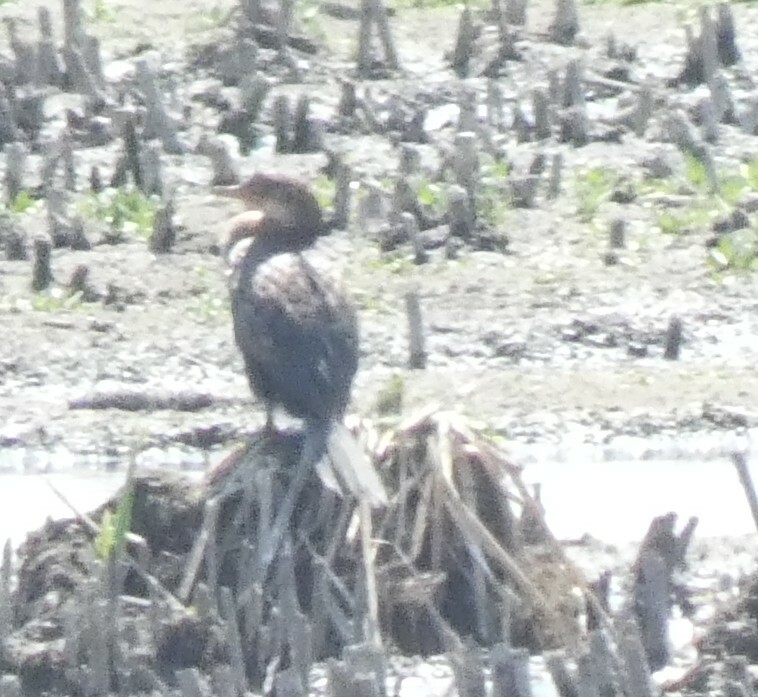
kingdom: Animalia
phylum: Chordata
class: Aves
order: Suliformes
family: Phalacrocoracidae
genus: Microcarbo
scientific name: Microcarbo africanus
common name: Long-tailed cormorant
